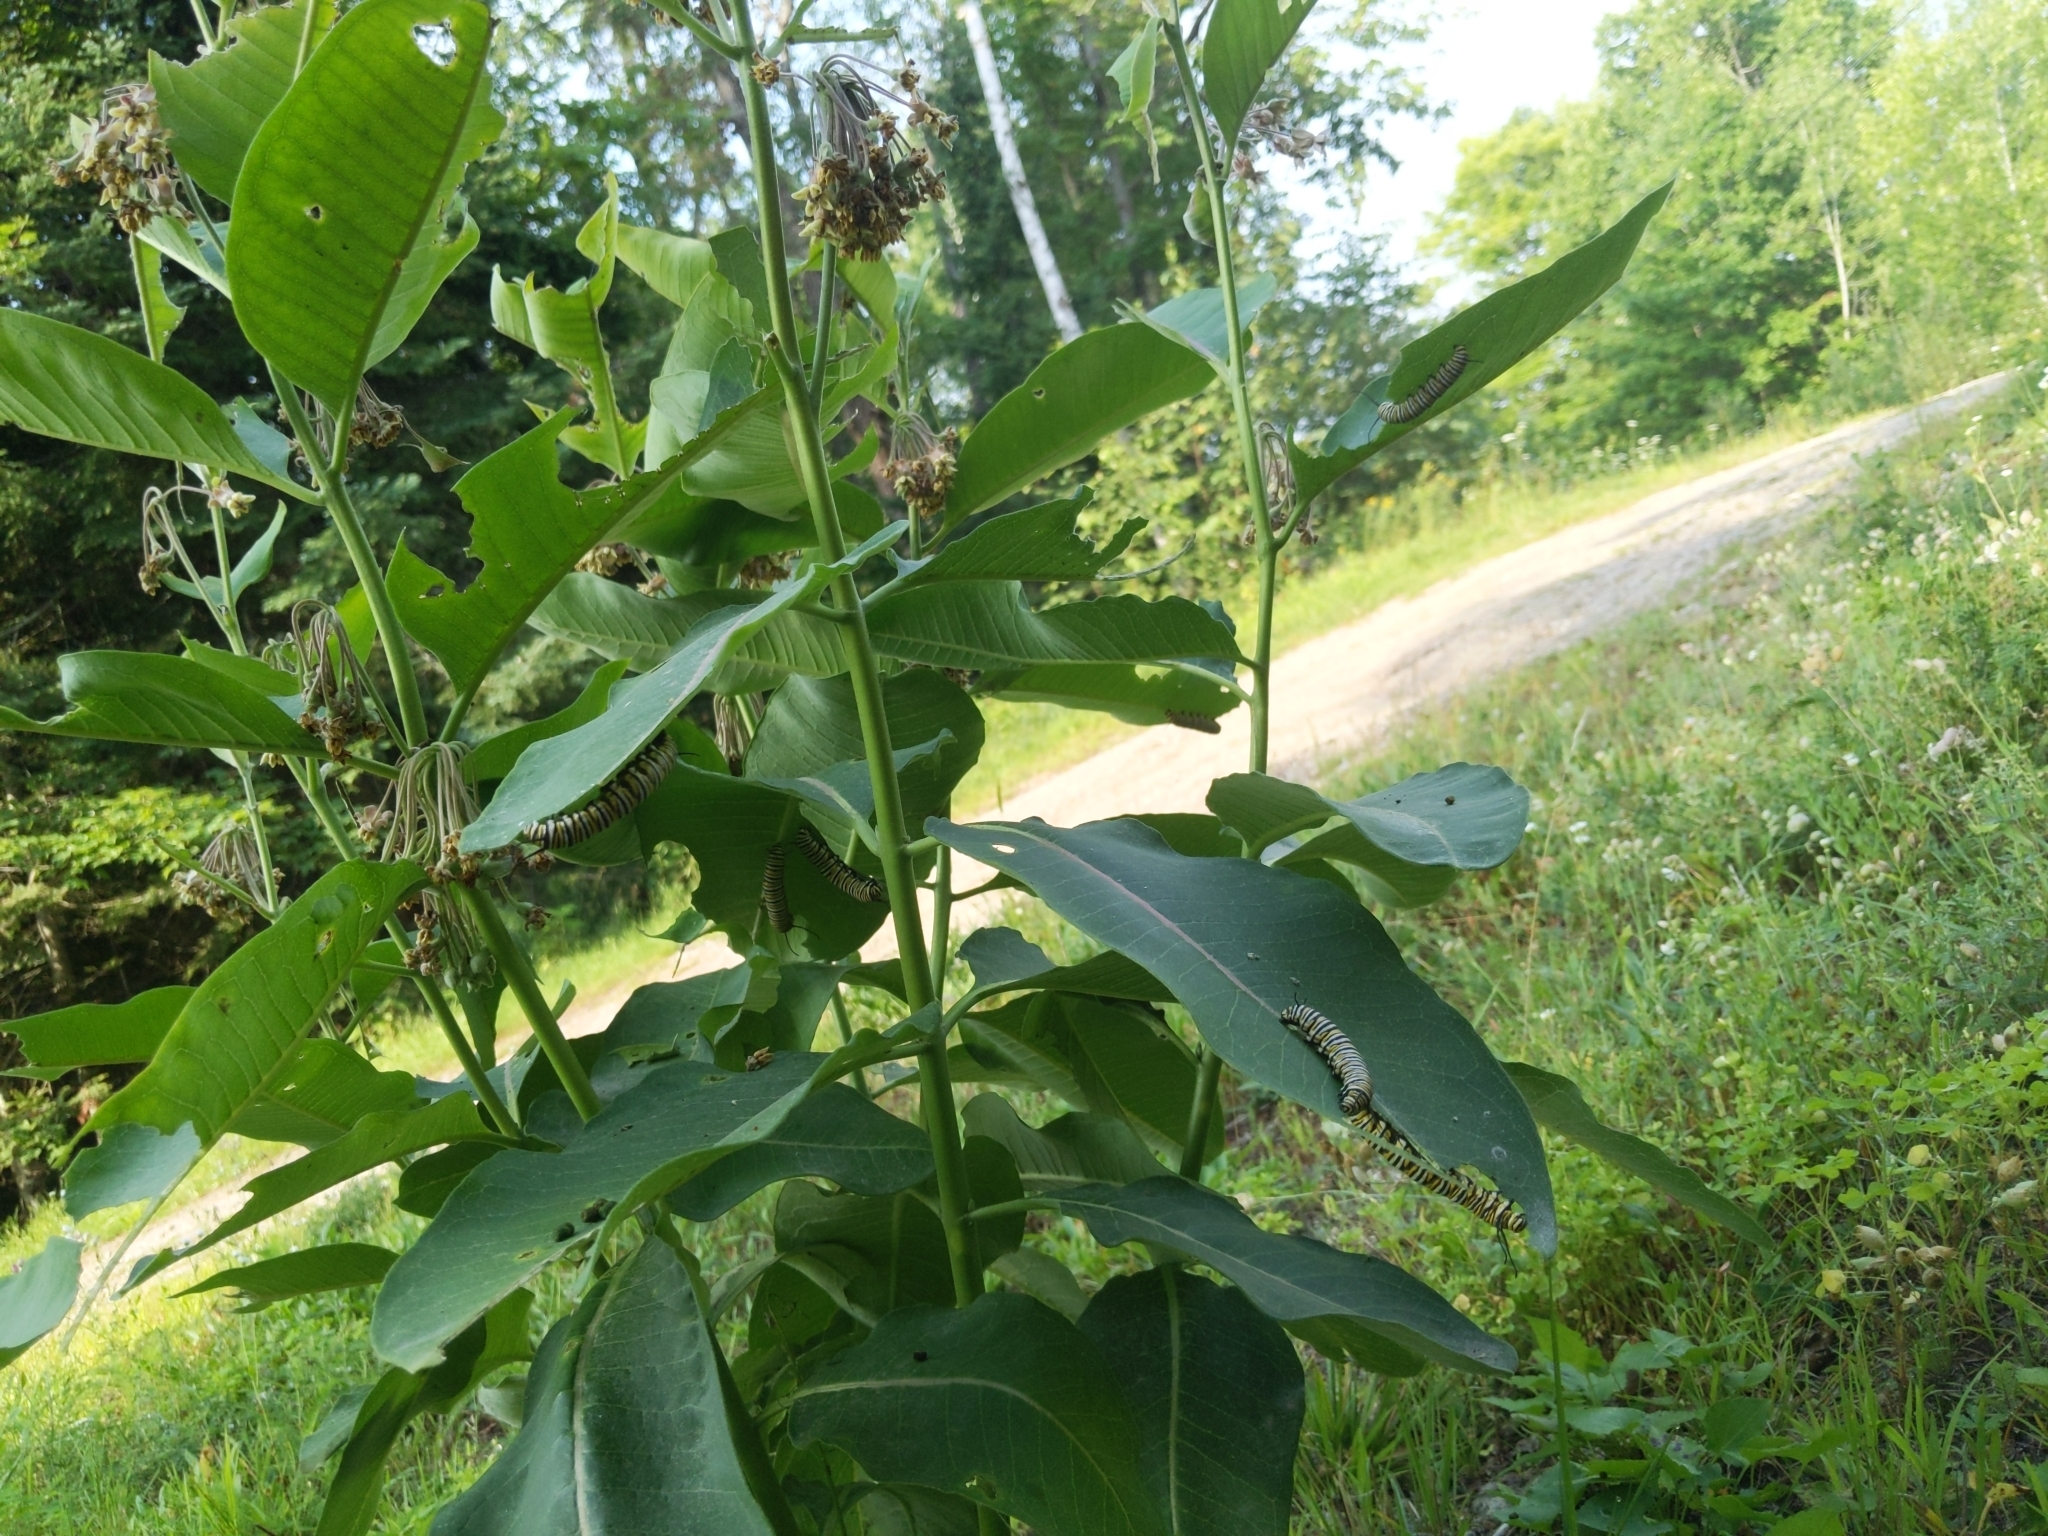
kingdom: Animalia
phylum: Arthropoda
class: Insecta
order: Lepidoptera
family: Nymphalidae
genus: Danaus
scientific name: Danaus plexippus
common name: Monarch
